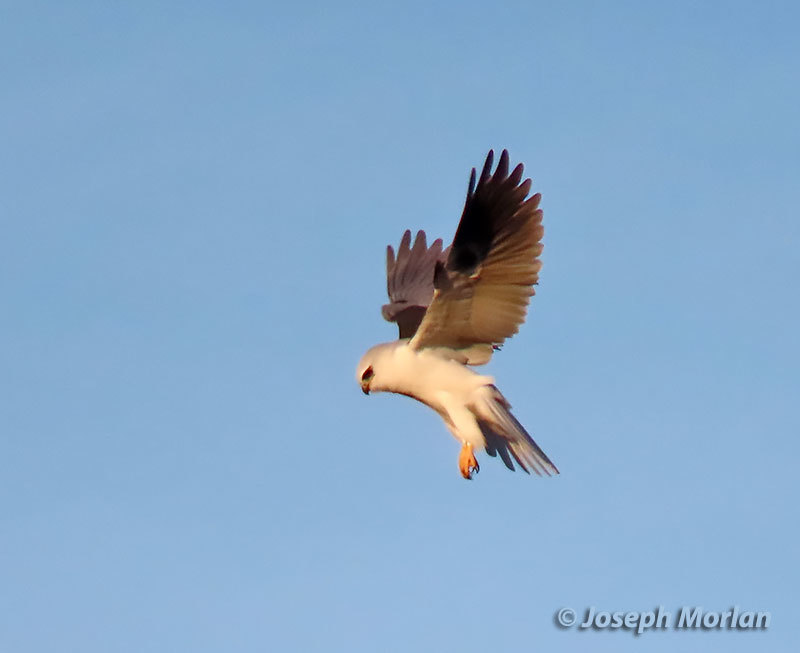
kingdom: Animalia
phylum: Chordata
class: Aves
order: Accipitriformes
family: Accipitridae
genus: Elanus
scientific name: Elanus leucurus
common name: White-tailed kite
